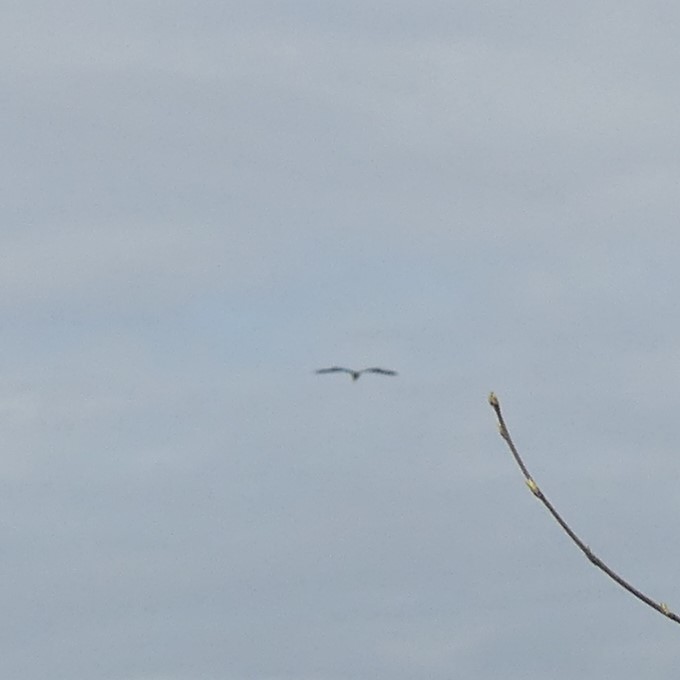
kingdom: Animalia
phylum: Chordata
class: Aves
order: Pelecaniformes
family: Ardeidae
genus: Ardea
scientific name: Ardea herodias
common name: Great blue heron
